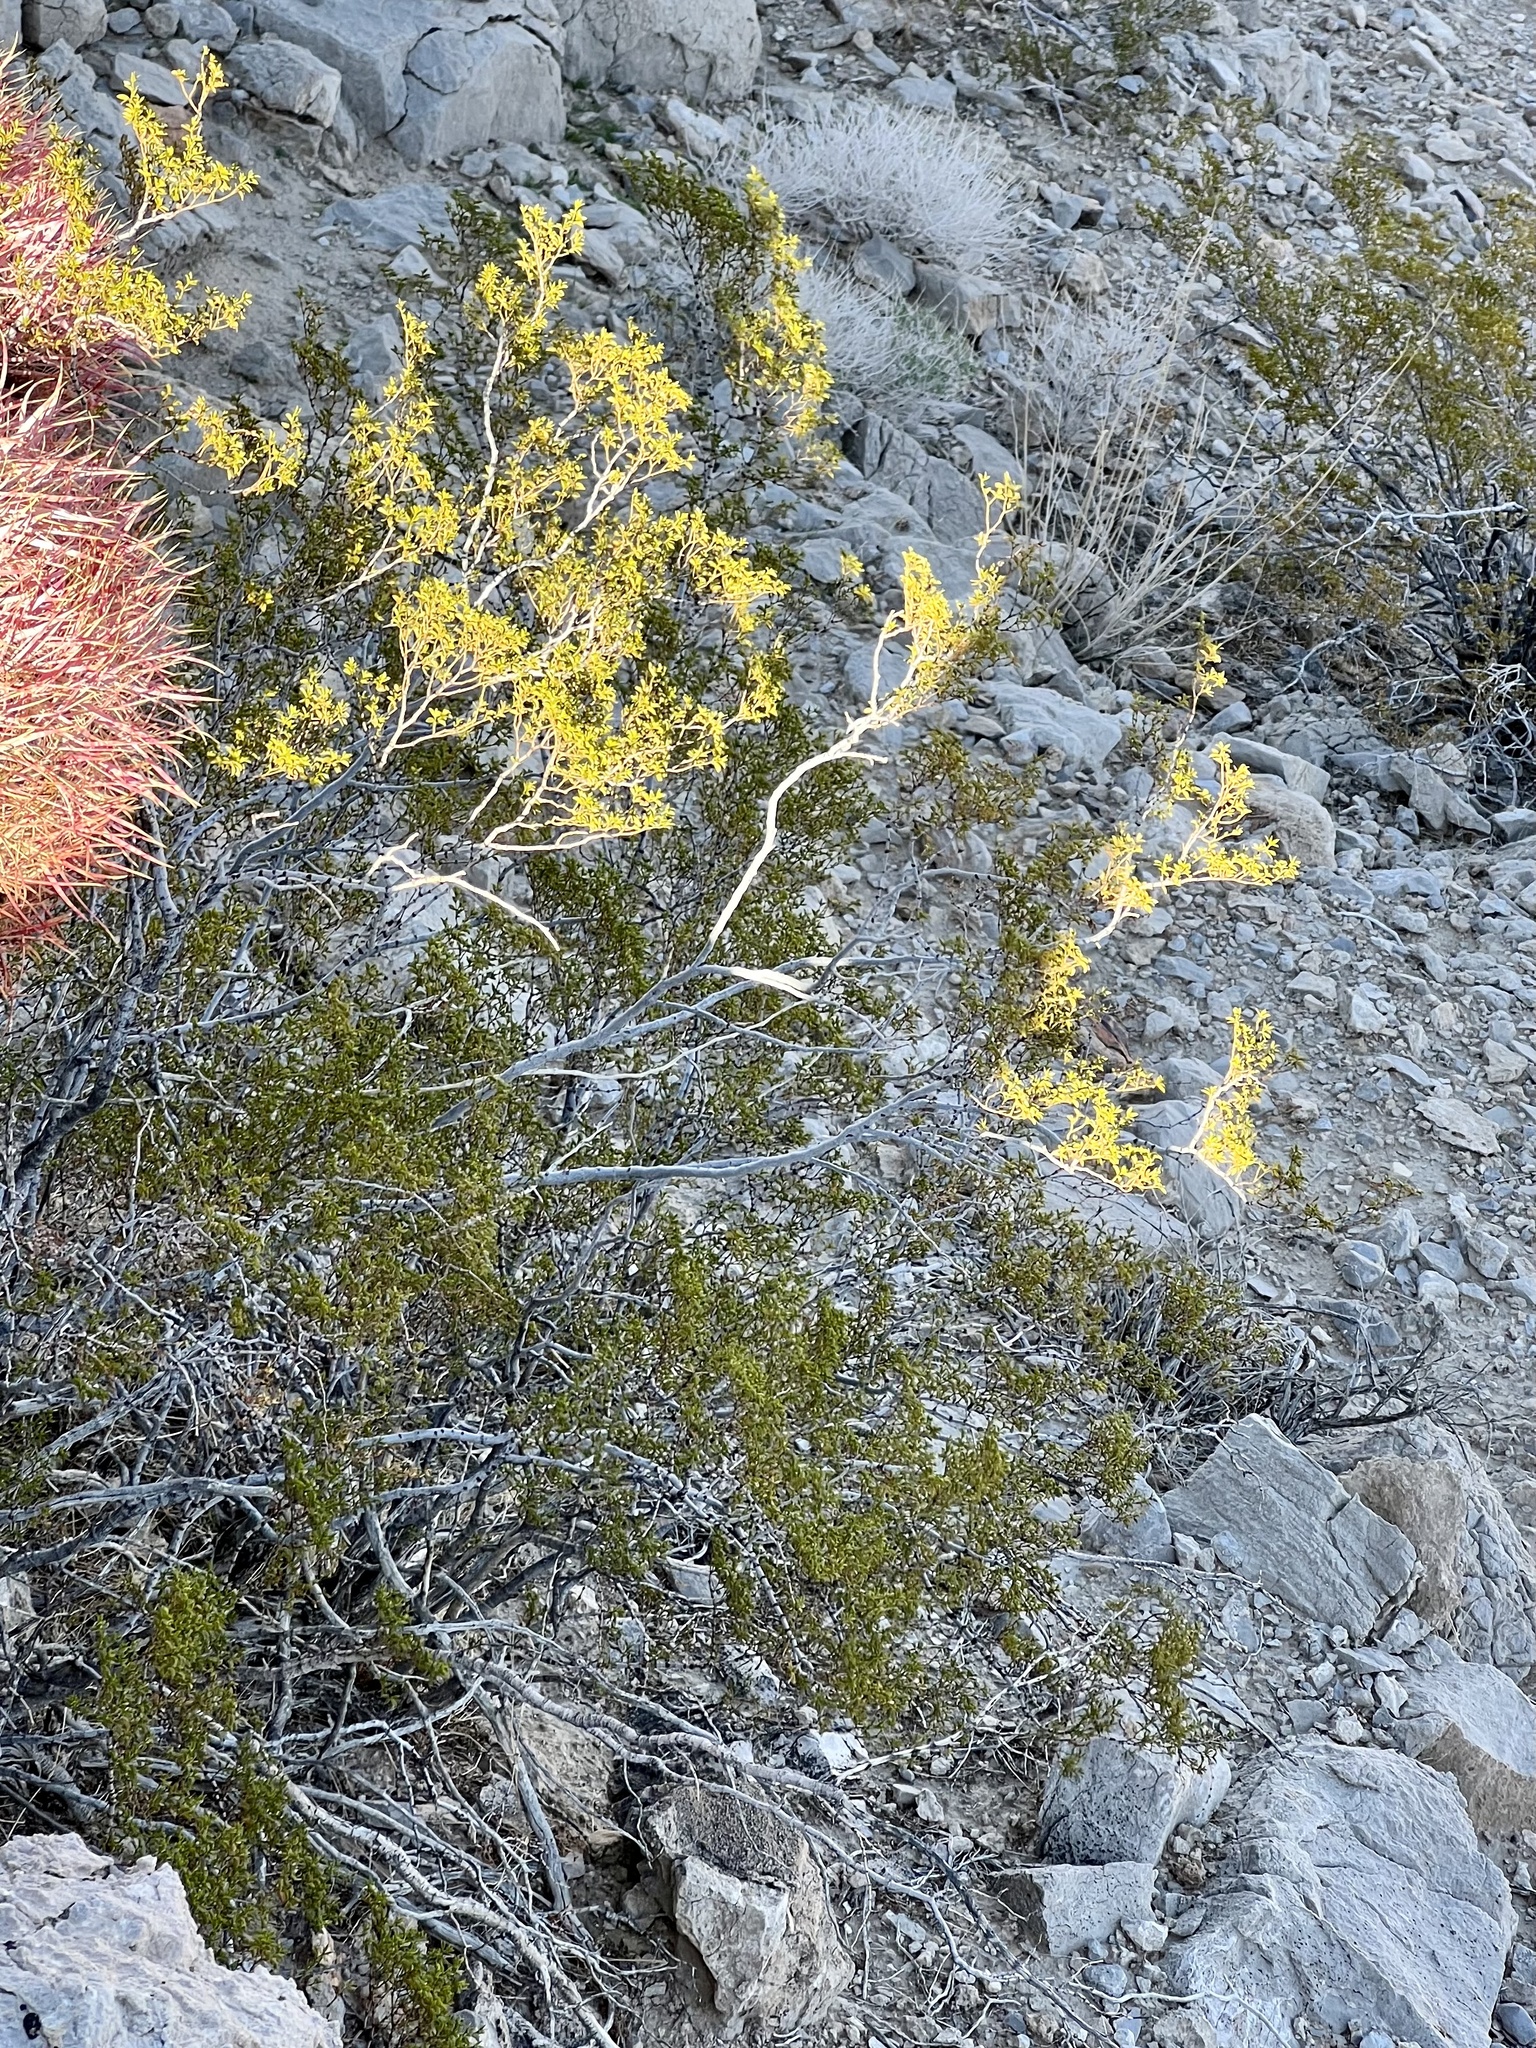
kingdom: Plantae
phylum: Tracheophyta
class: Magnoliopsida
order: Zygophyllales
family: Zygophyllaceae
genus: Larrea
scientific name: Larrea tridentata
